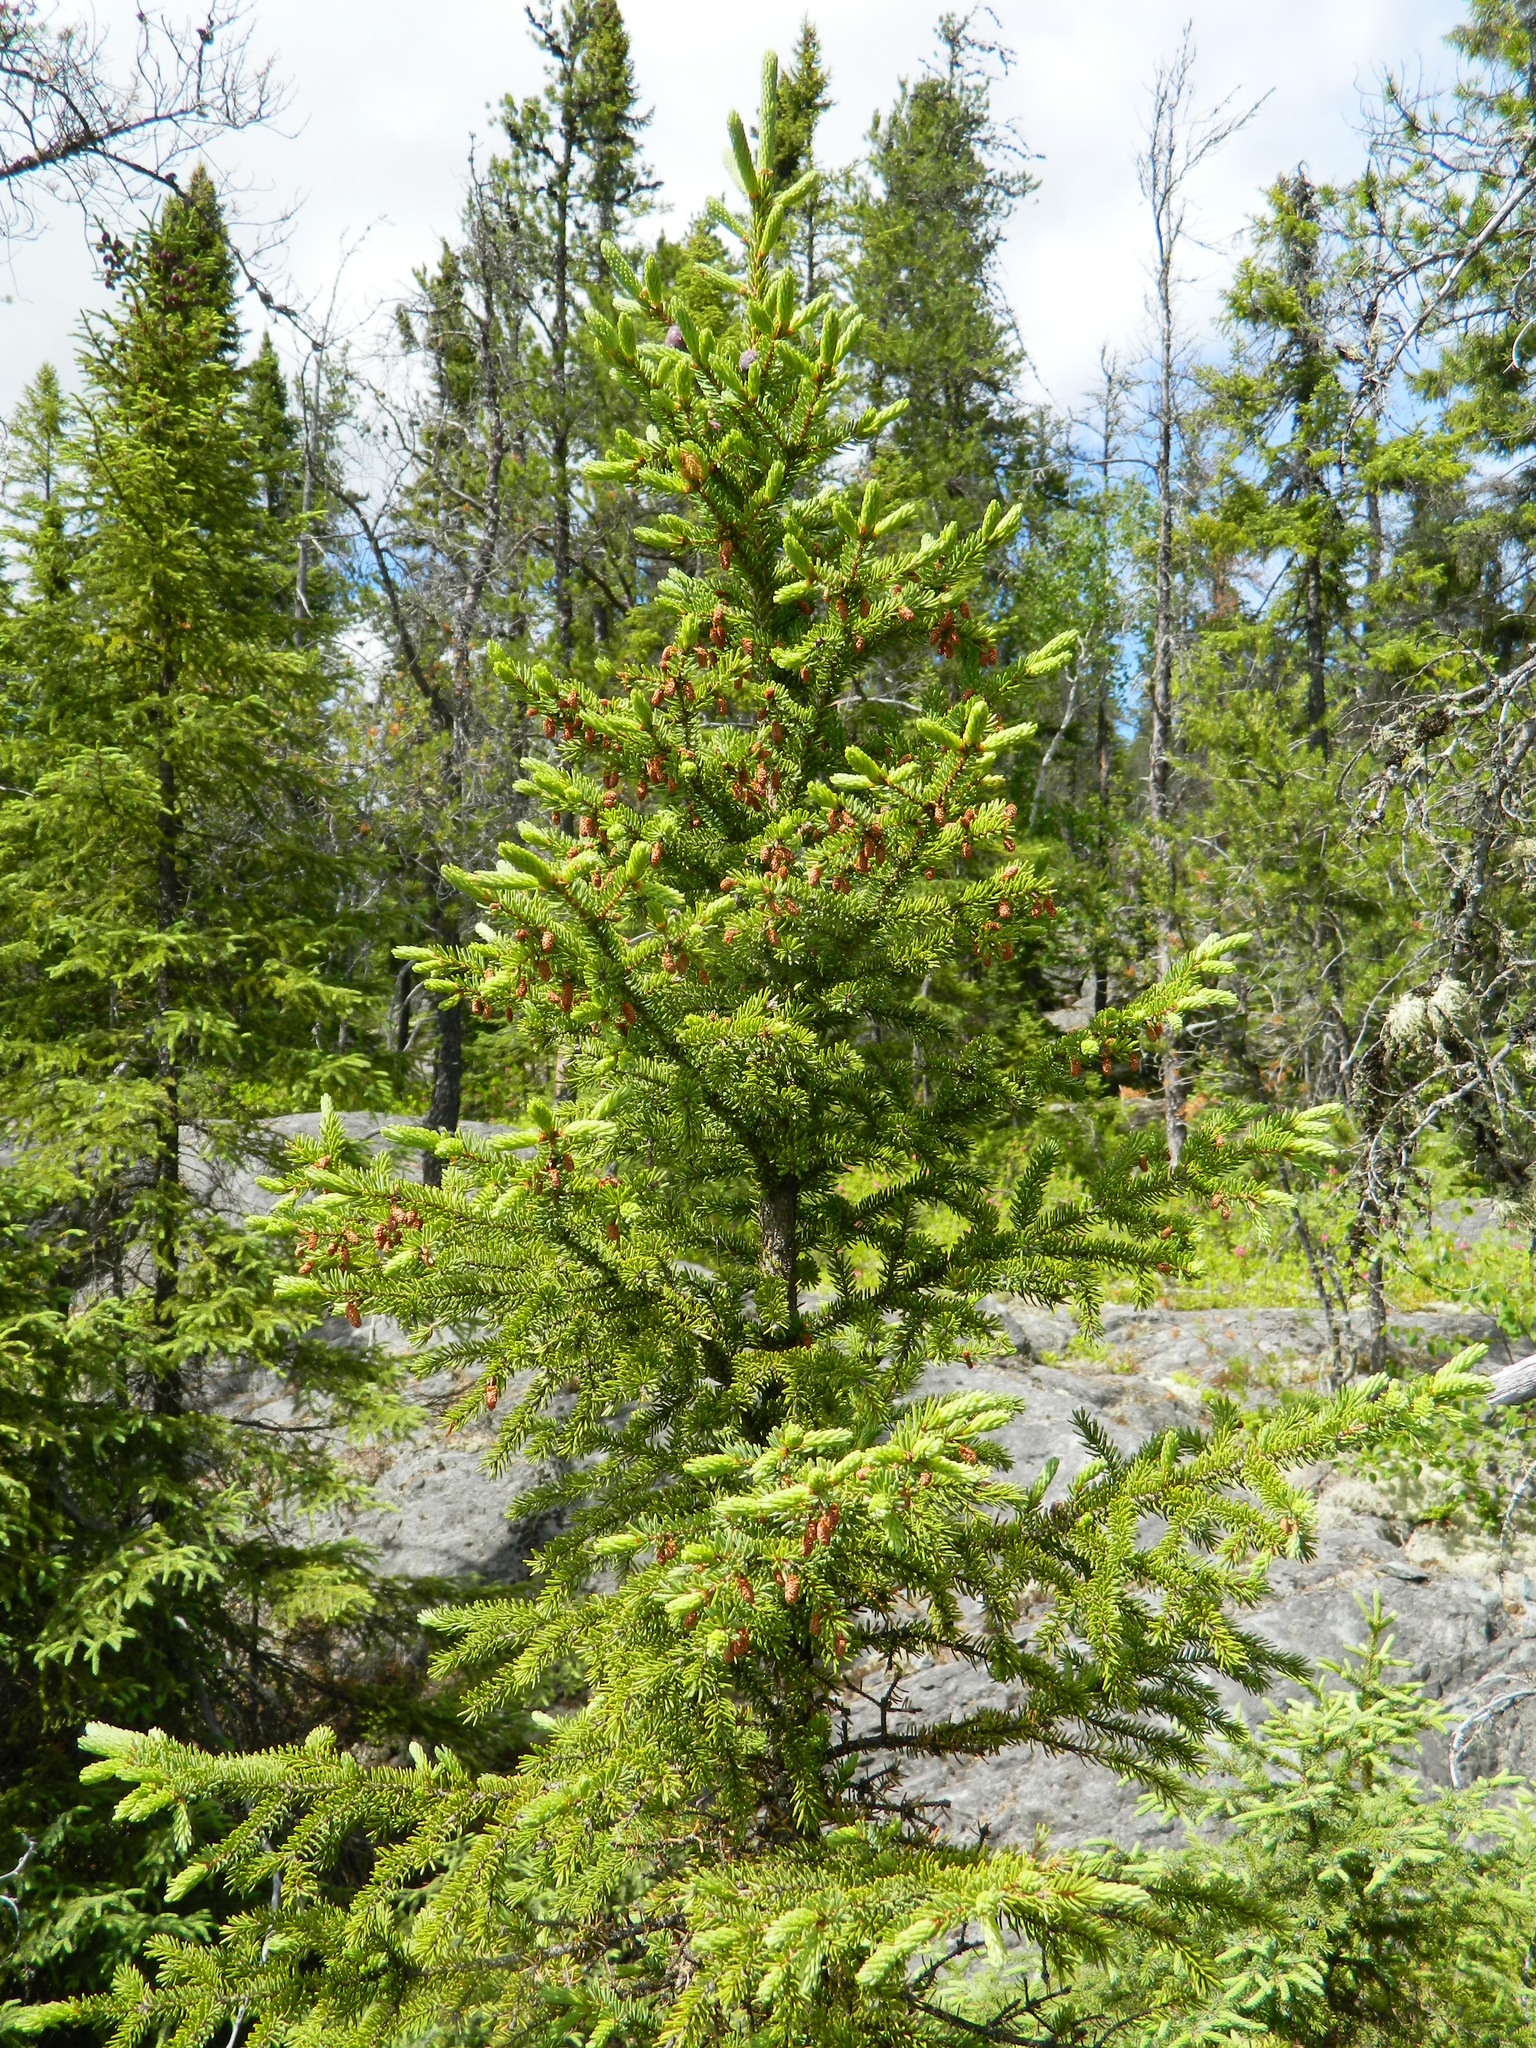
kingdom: Plantae
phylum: Tracheophyta
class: Pinopsida
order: Pinales
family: Pinaceae
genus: Picea
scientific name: Picea mariana
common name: Black spruce
